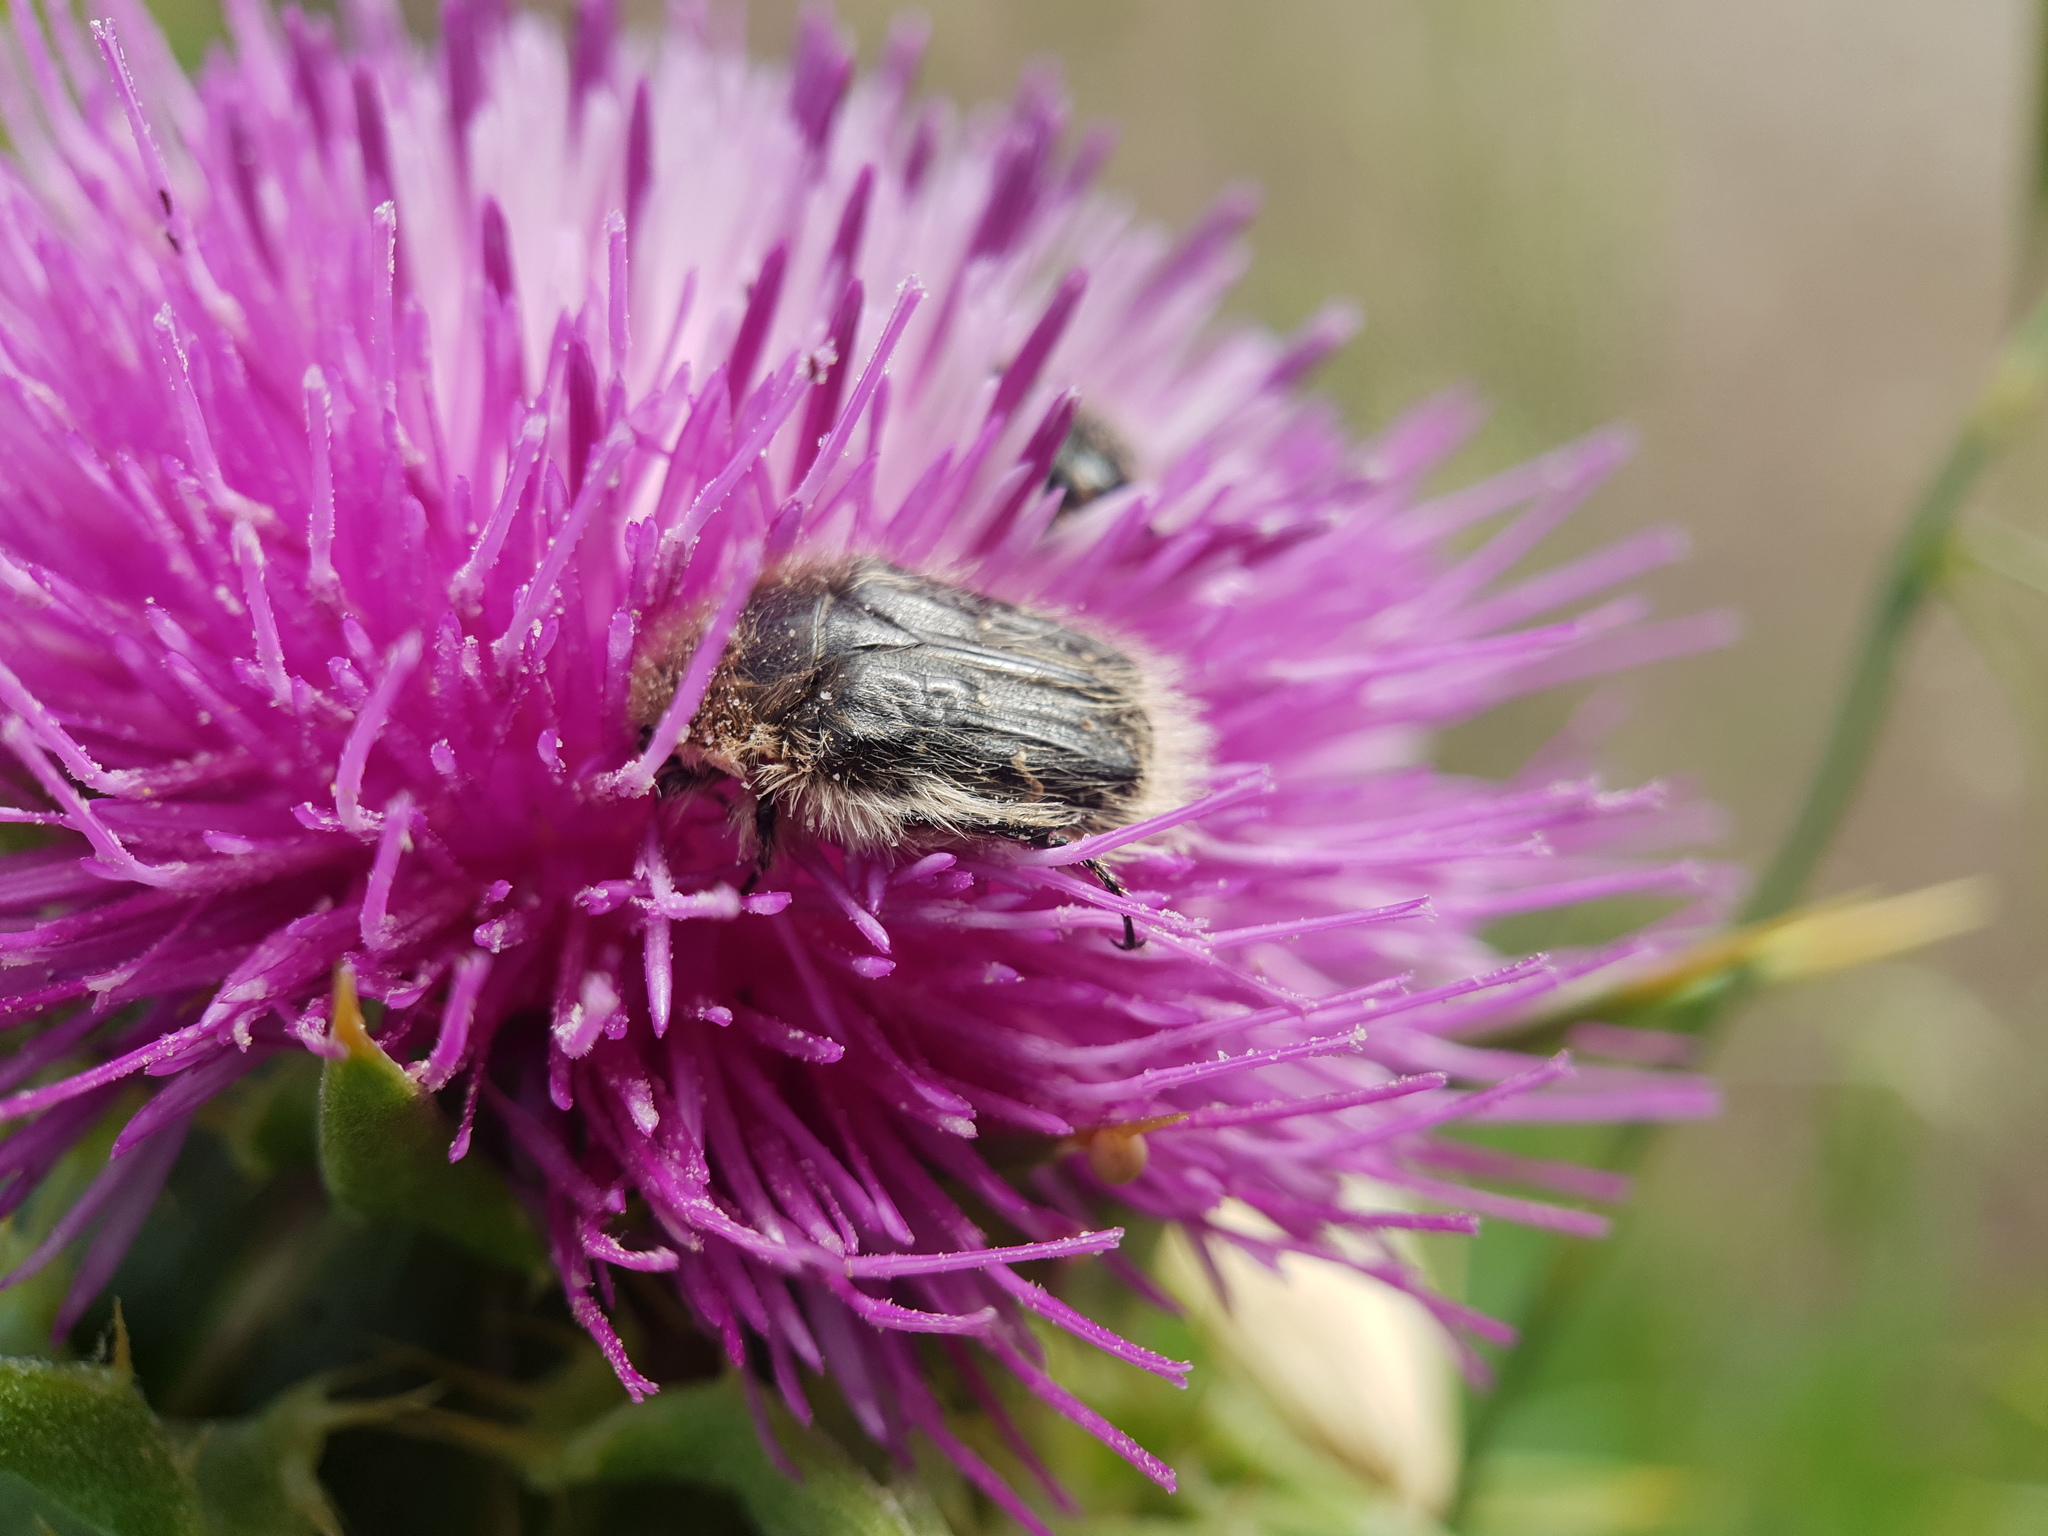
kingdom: Animalia
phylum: Arthropoda
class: Insecta
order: Coleoptera
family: Scarabaeidae
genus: Tropinota
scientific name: Tropinota hirta
